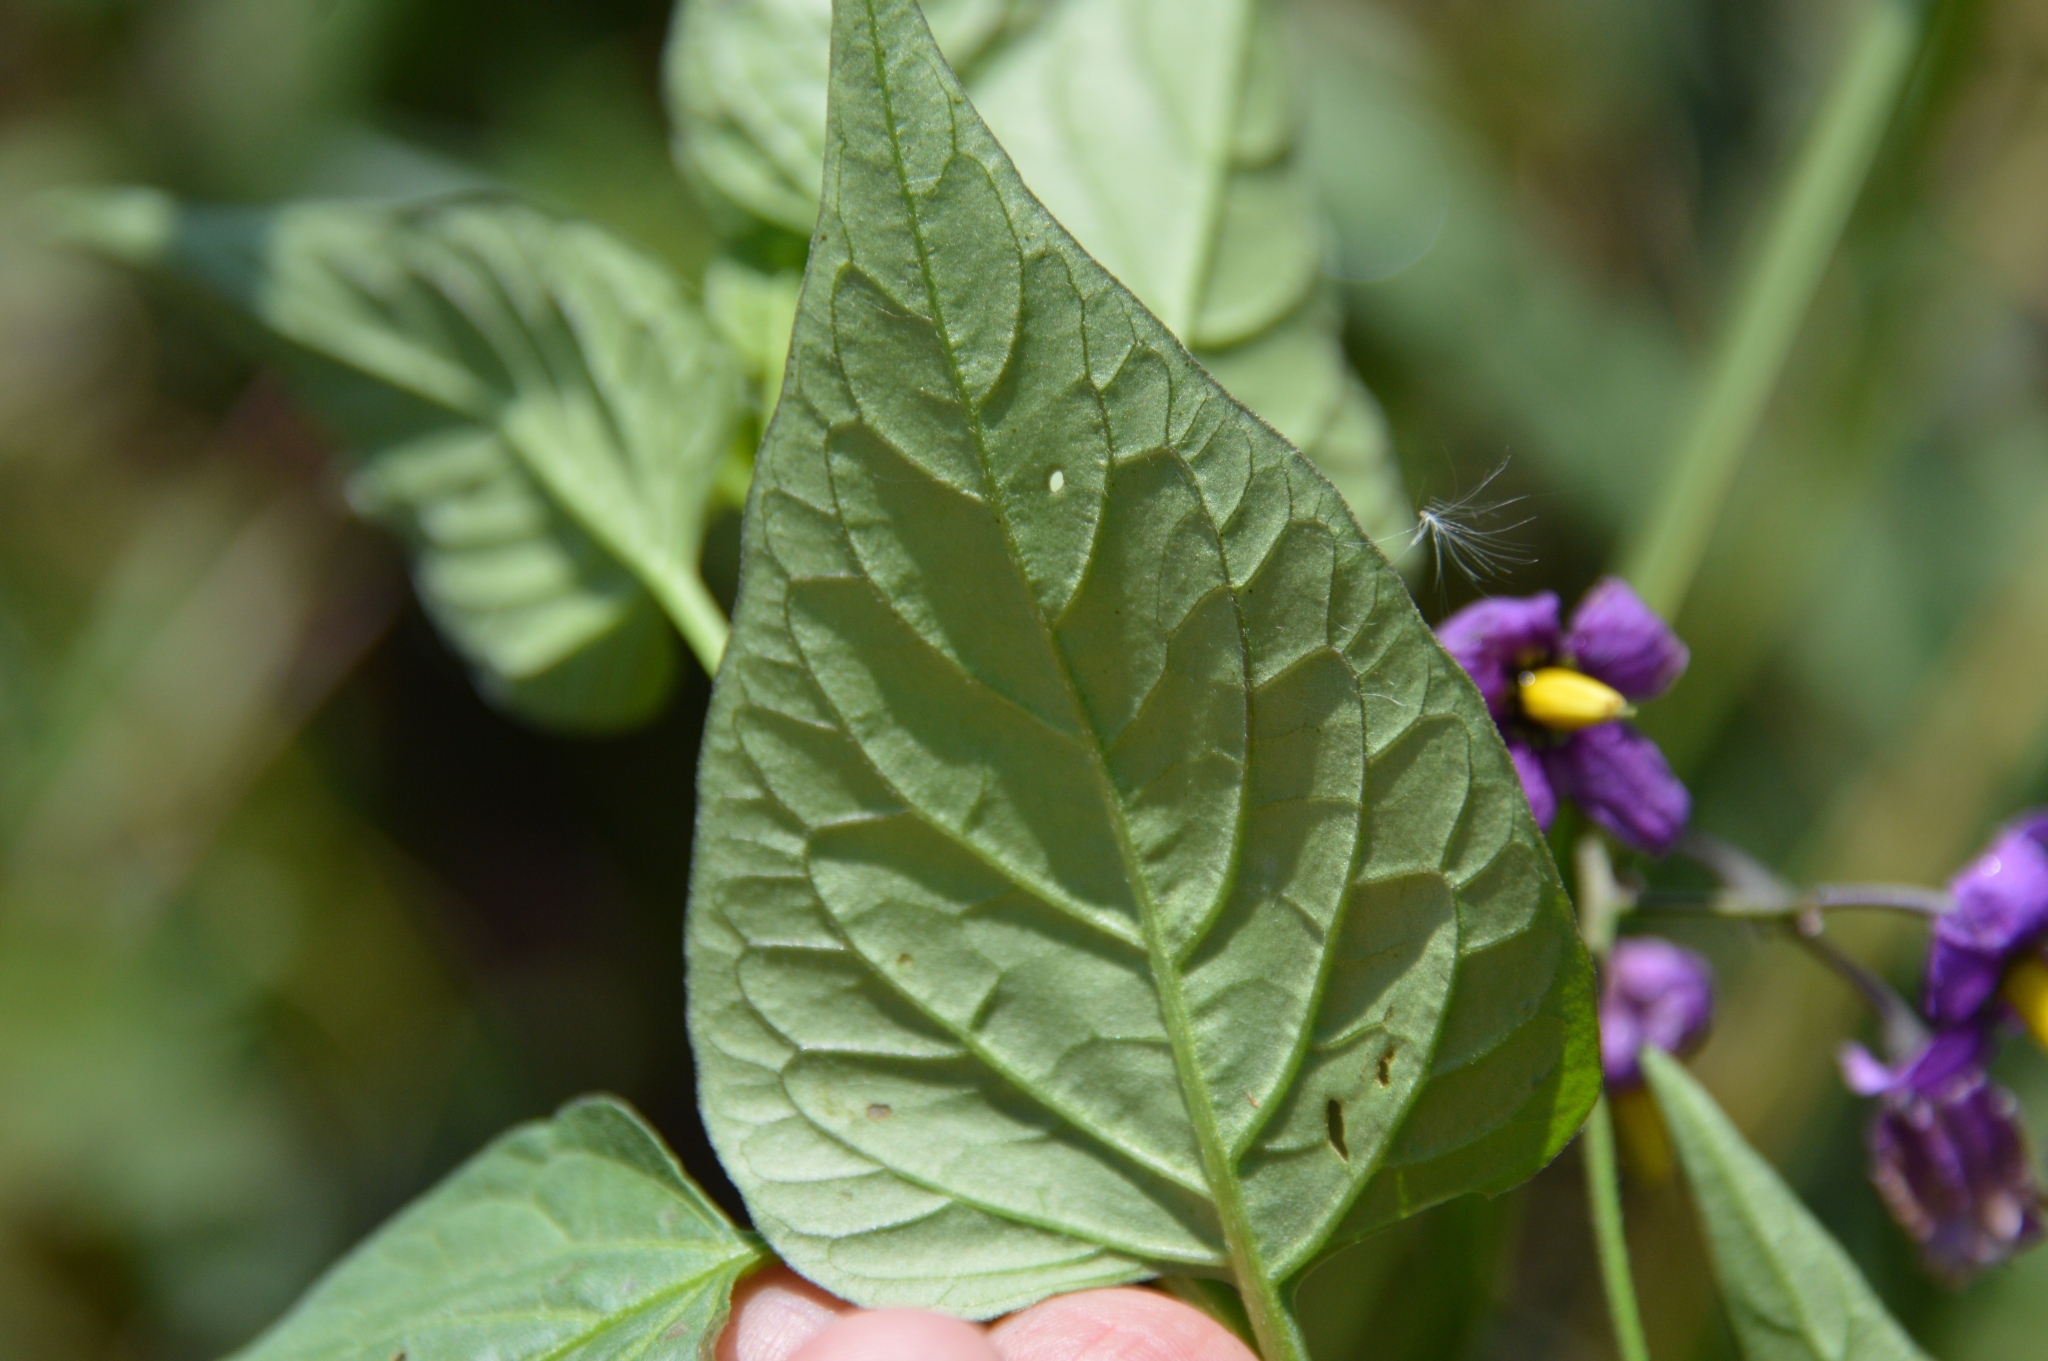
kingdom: Plantae
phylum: Tracheophyta
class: Magnoliopsida
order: Solanales
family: Solanaceae
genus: Solanum
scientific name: Solanum dulcamara
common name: Climbing nightshade
